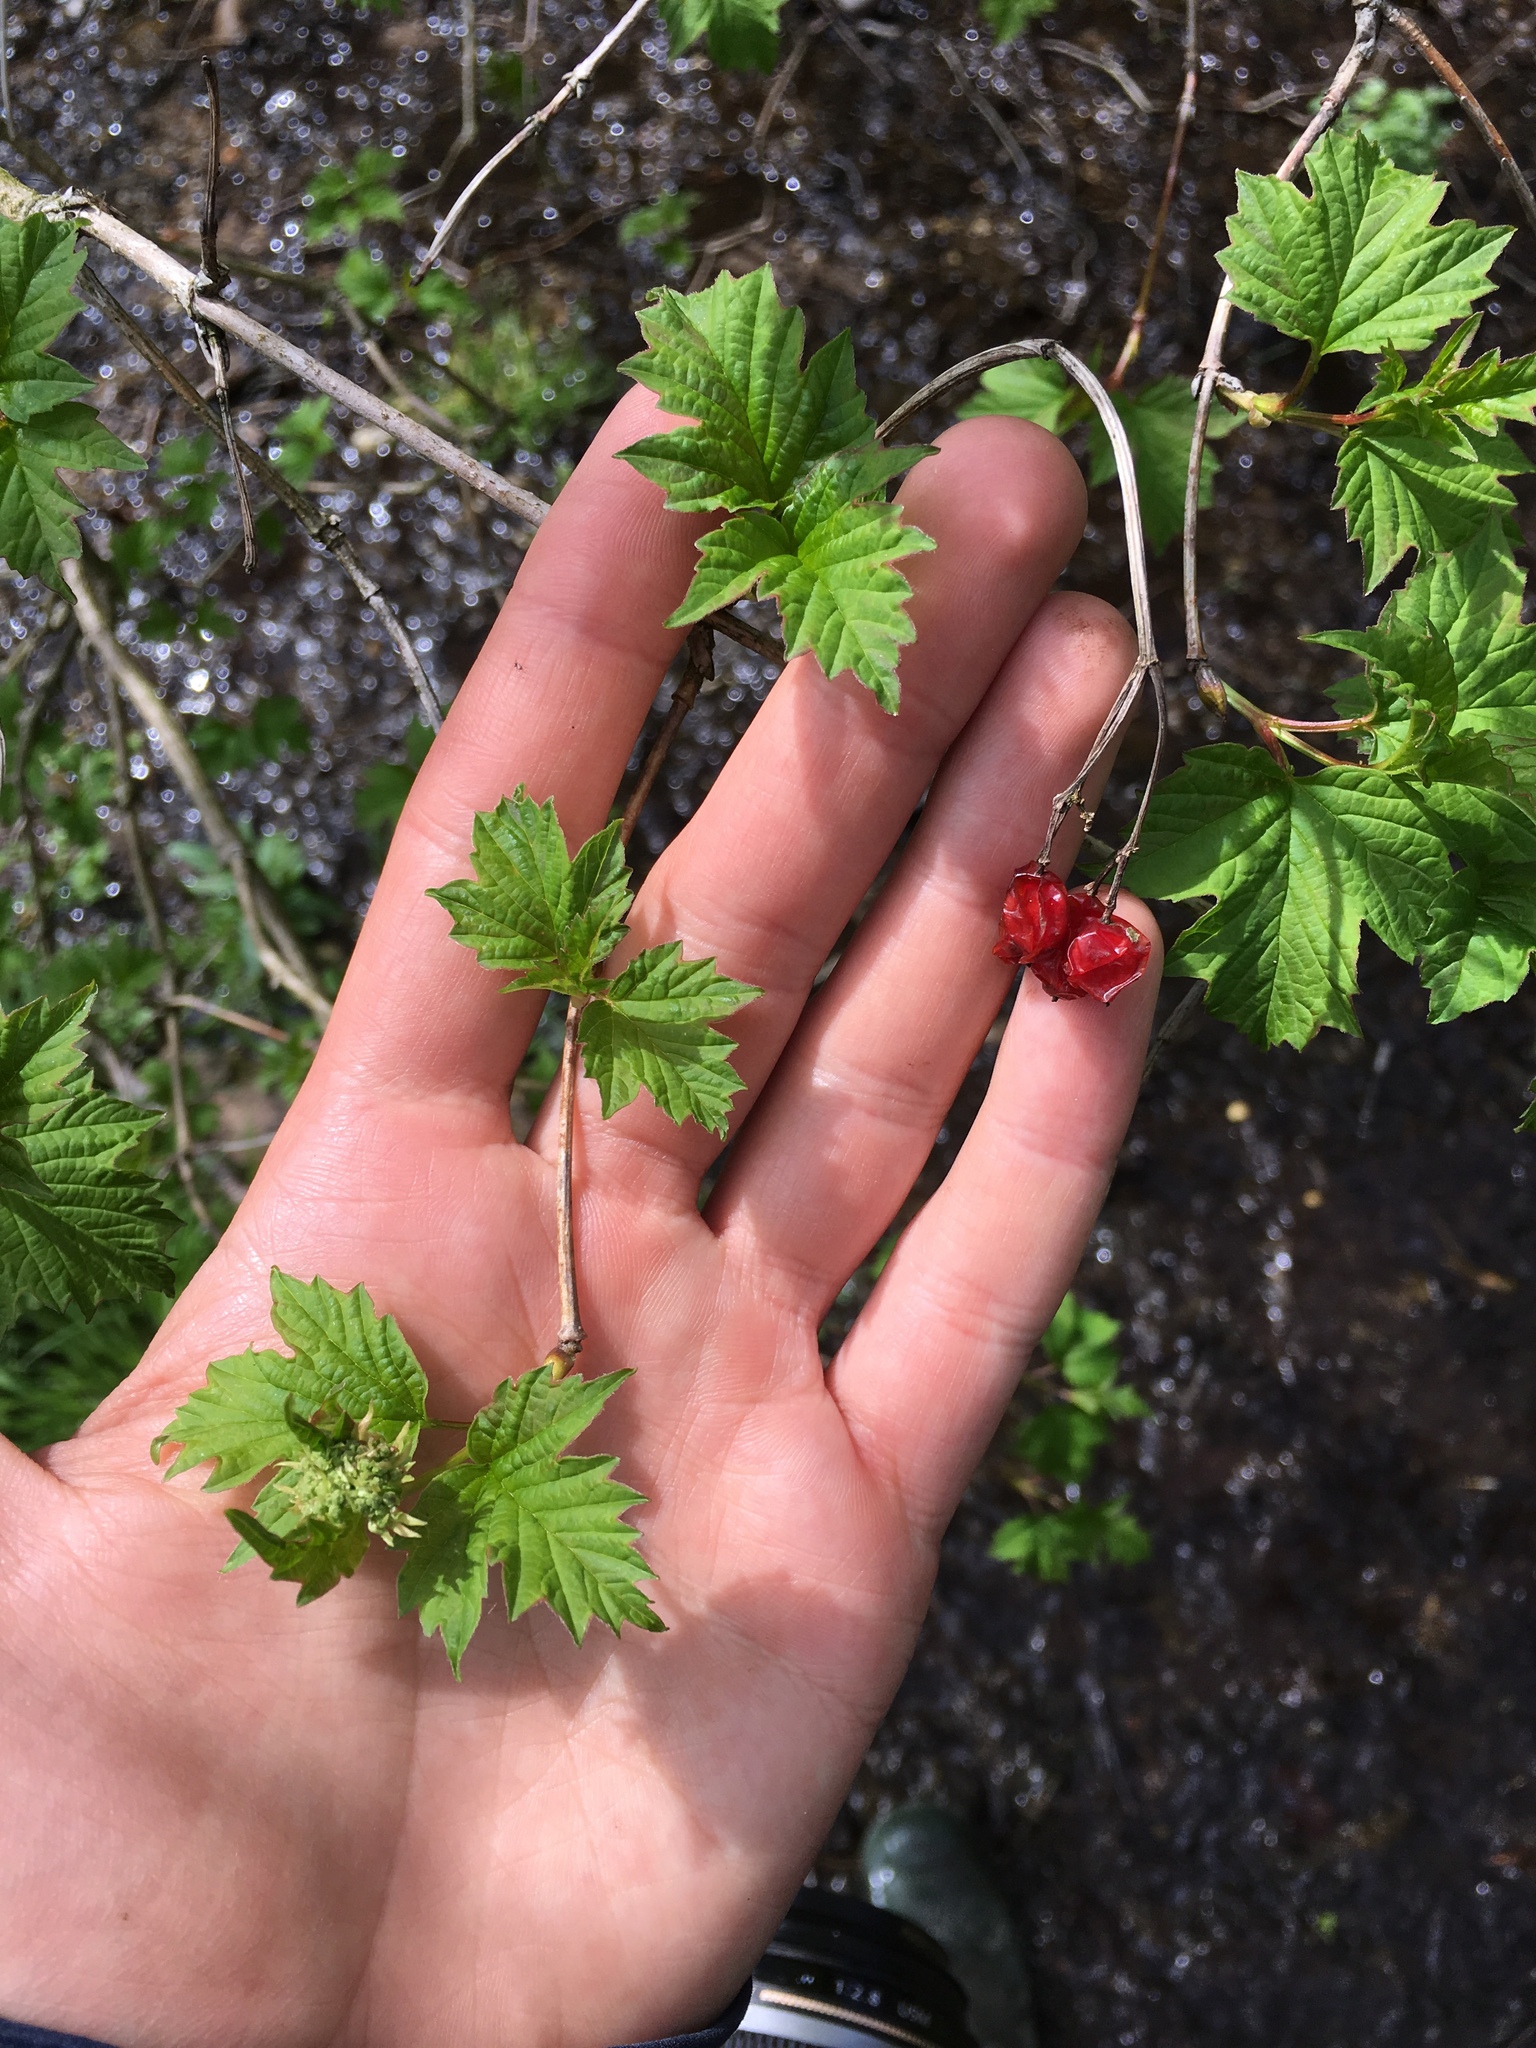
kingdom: Plantae
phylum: Tracheophyta
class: Magnoliopsida
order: Dipsacales
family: Viburnaceae
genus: Viburnum
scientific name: Viburnum opulus
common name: Guelder-rose
